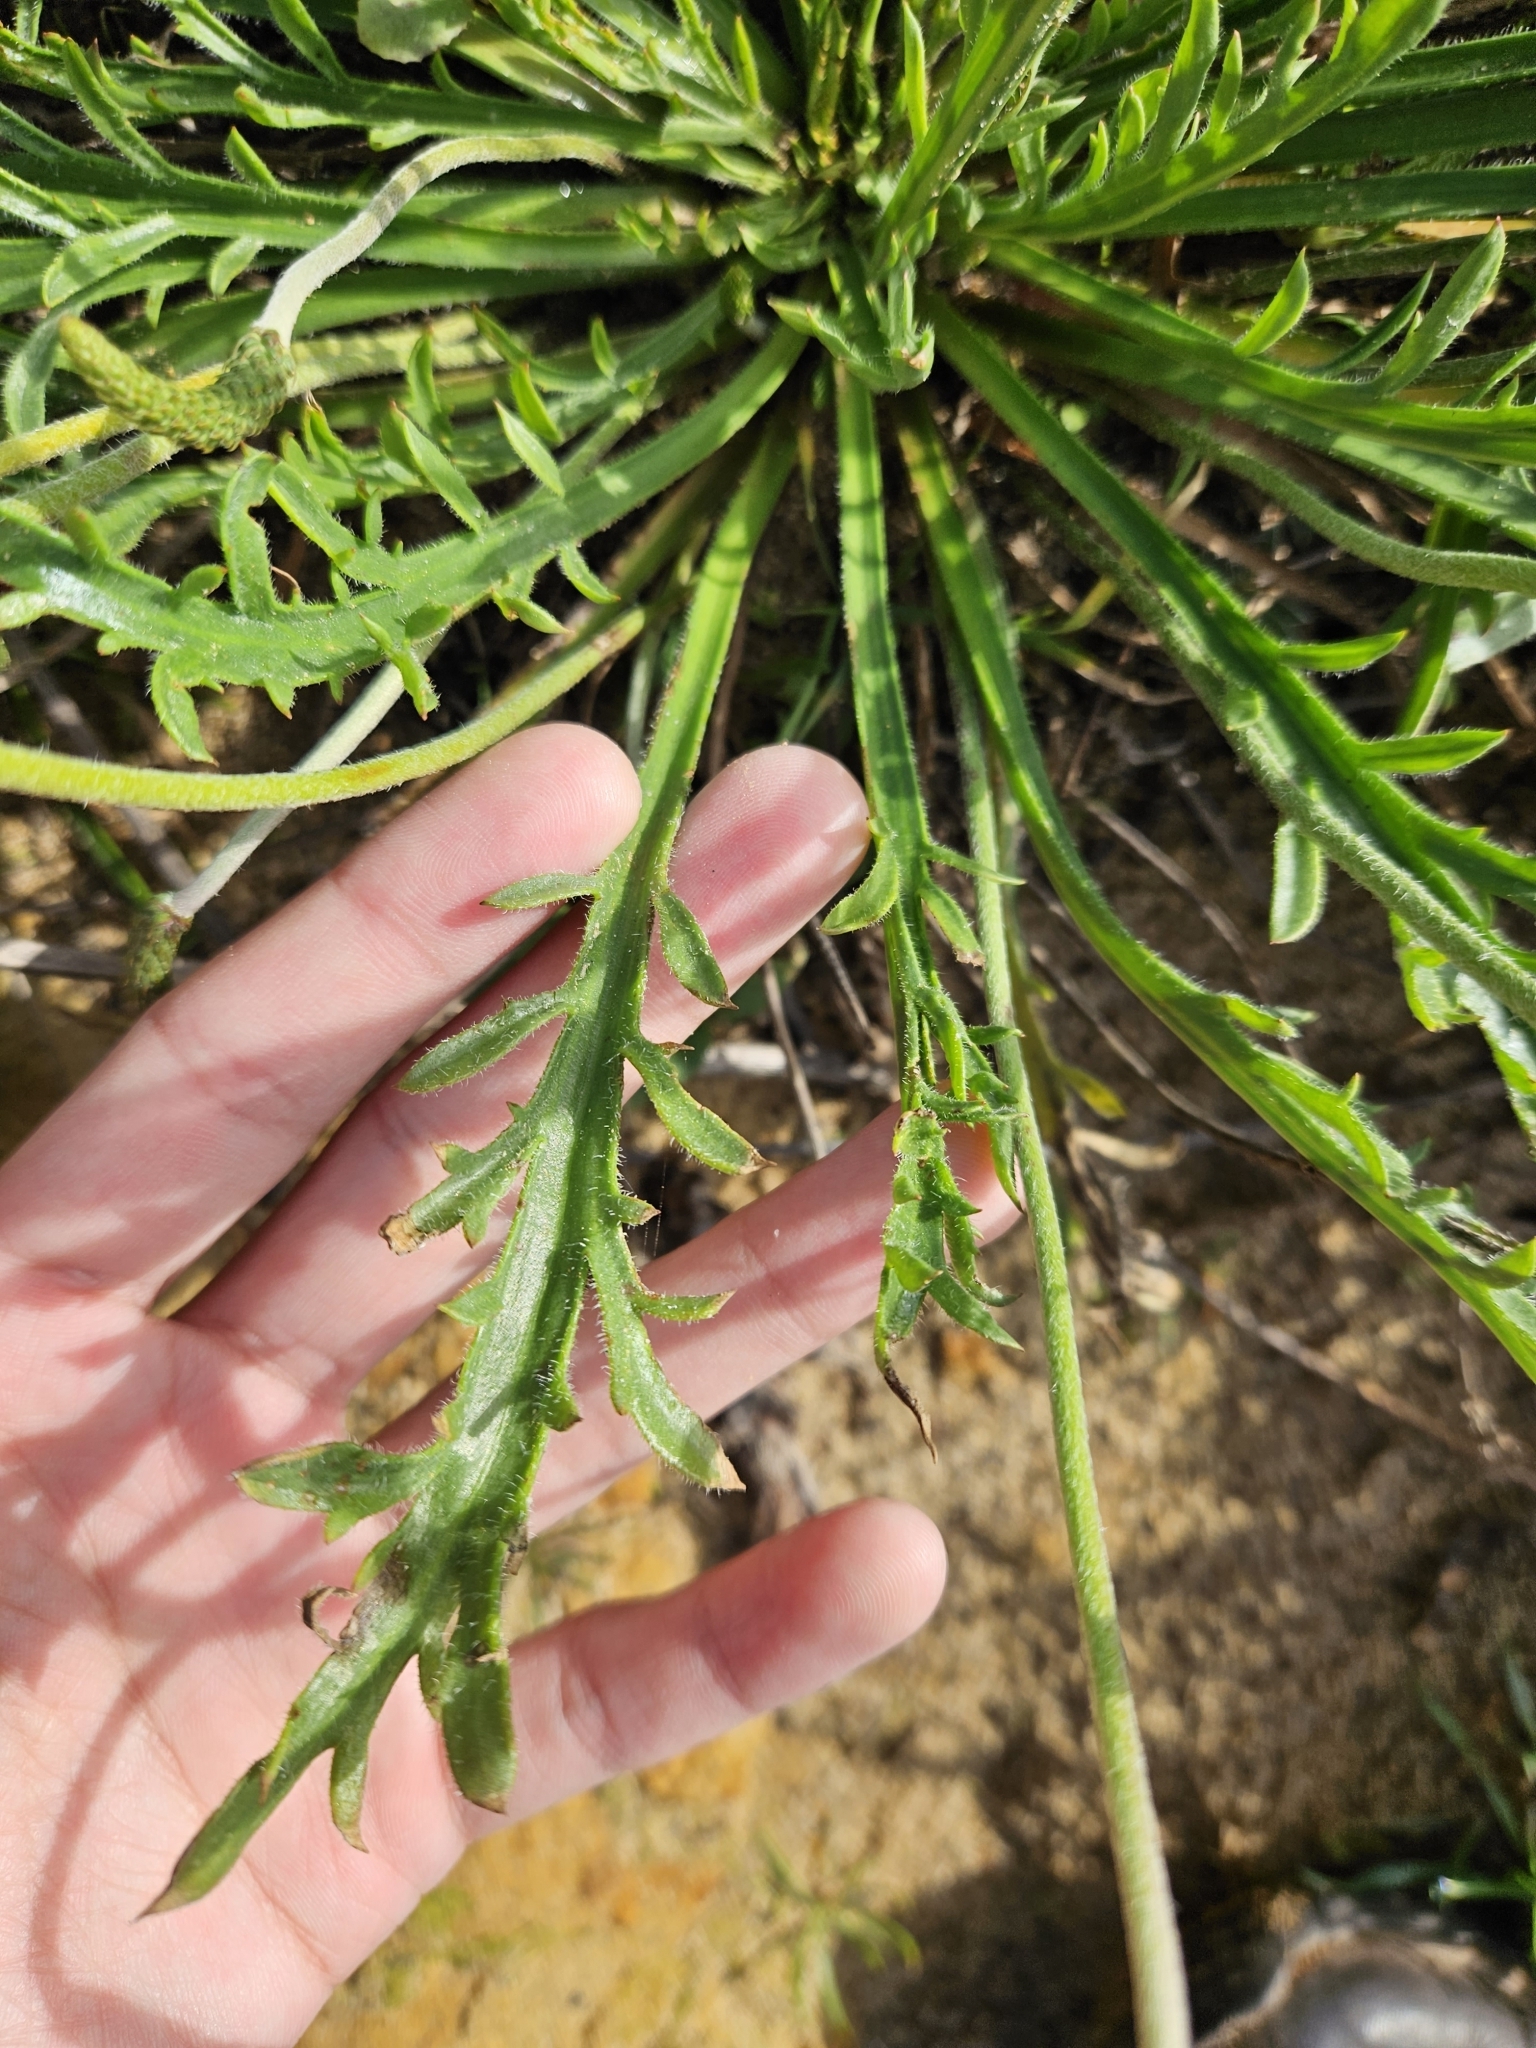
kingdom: Plantae
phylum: Tracheophyta
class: Magnoliopsida
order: Lamiales
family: Plantaginaceae
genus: Plantago
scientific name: Plantago coronopus
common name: Buck's-horn plantain
